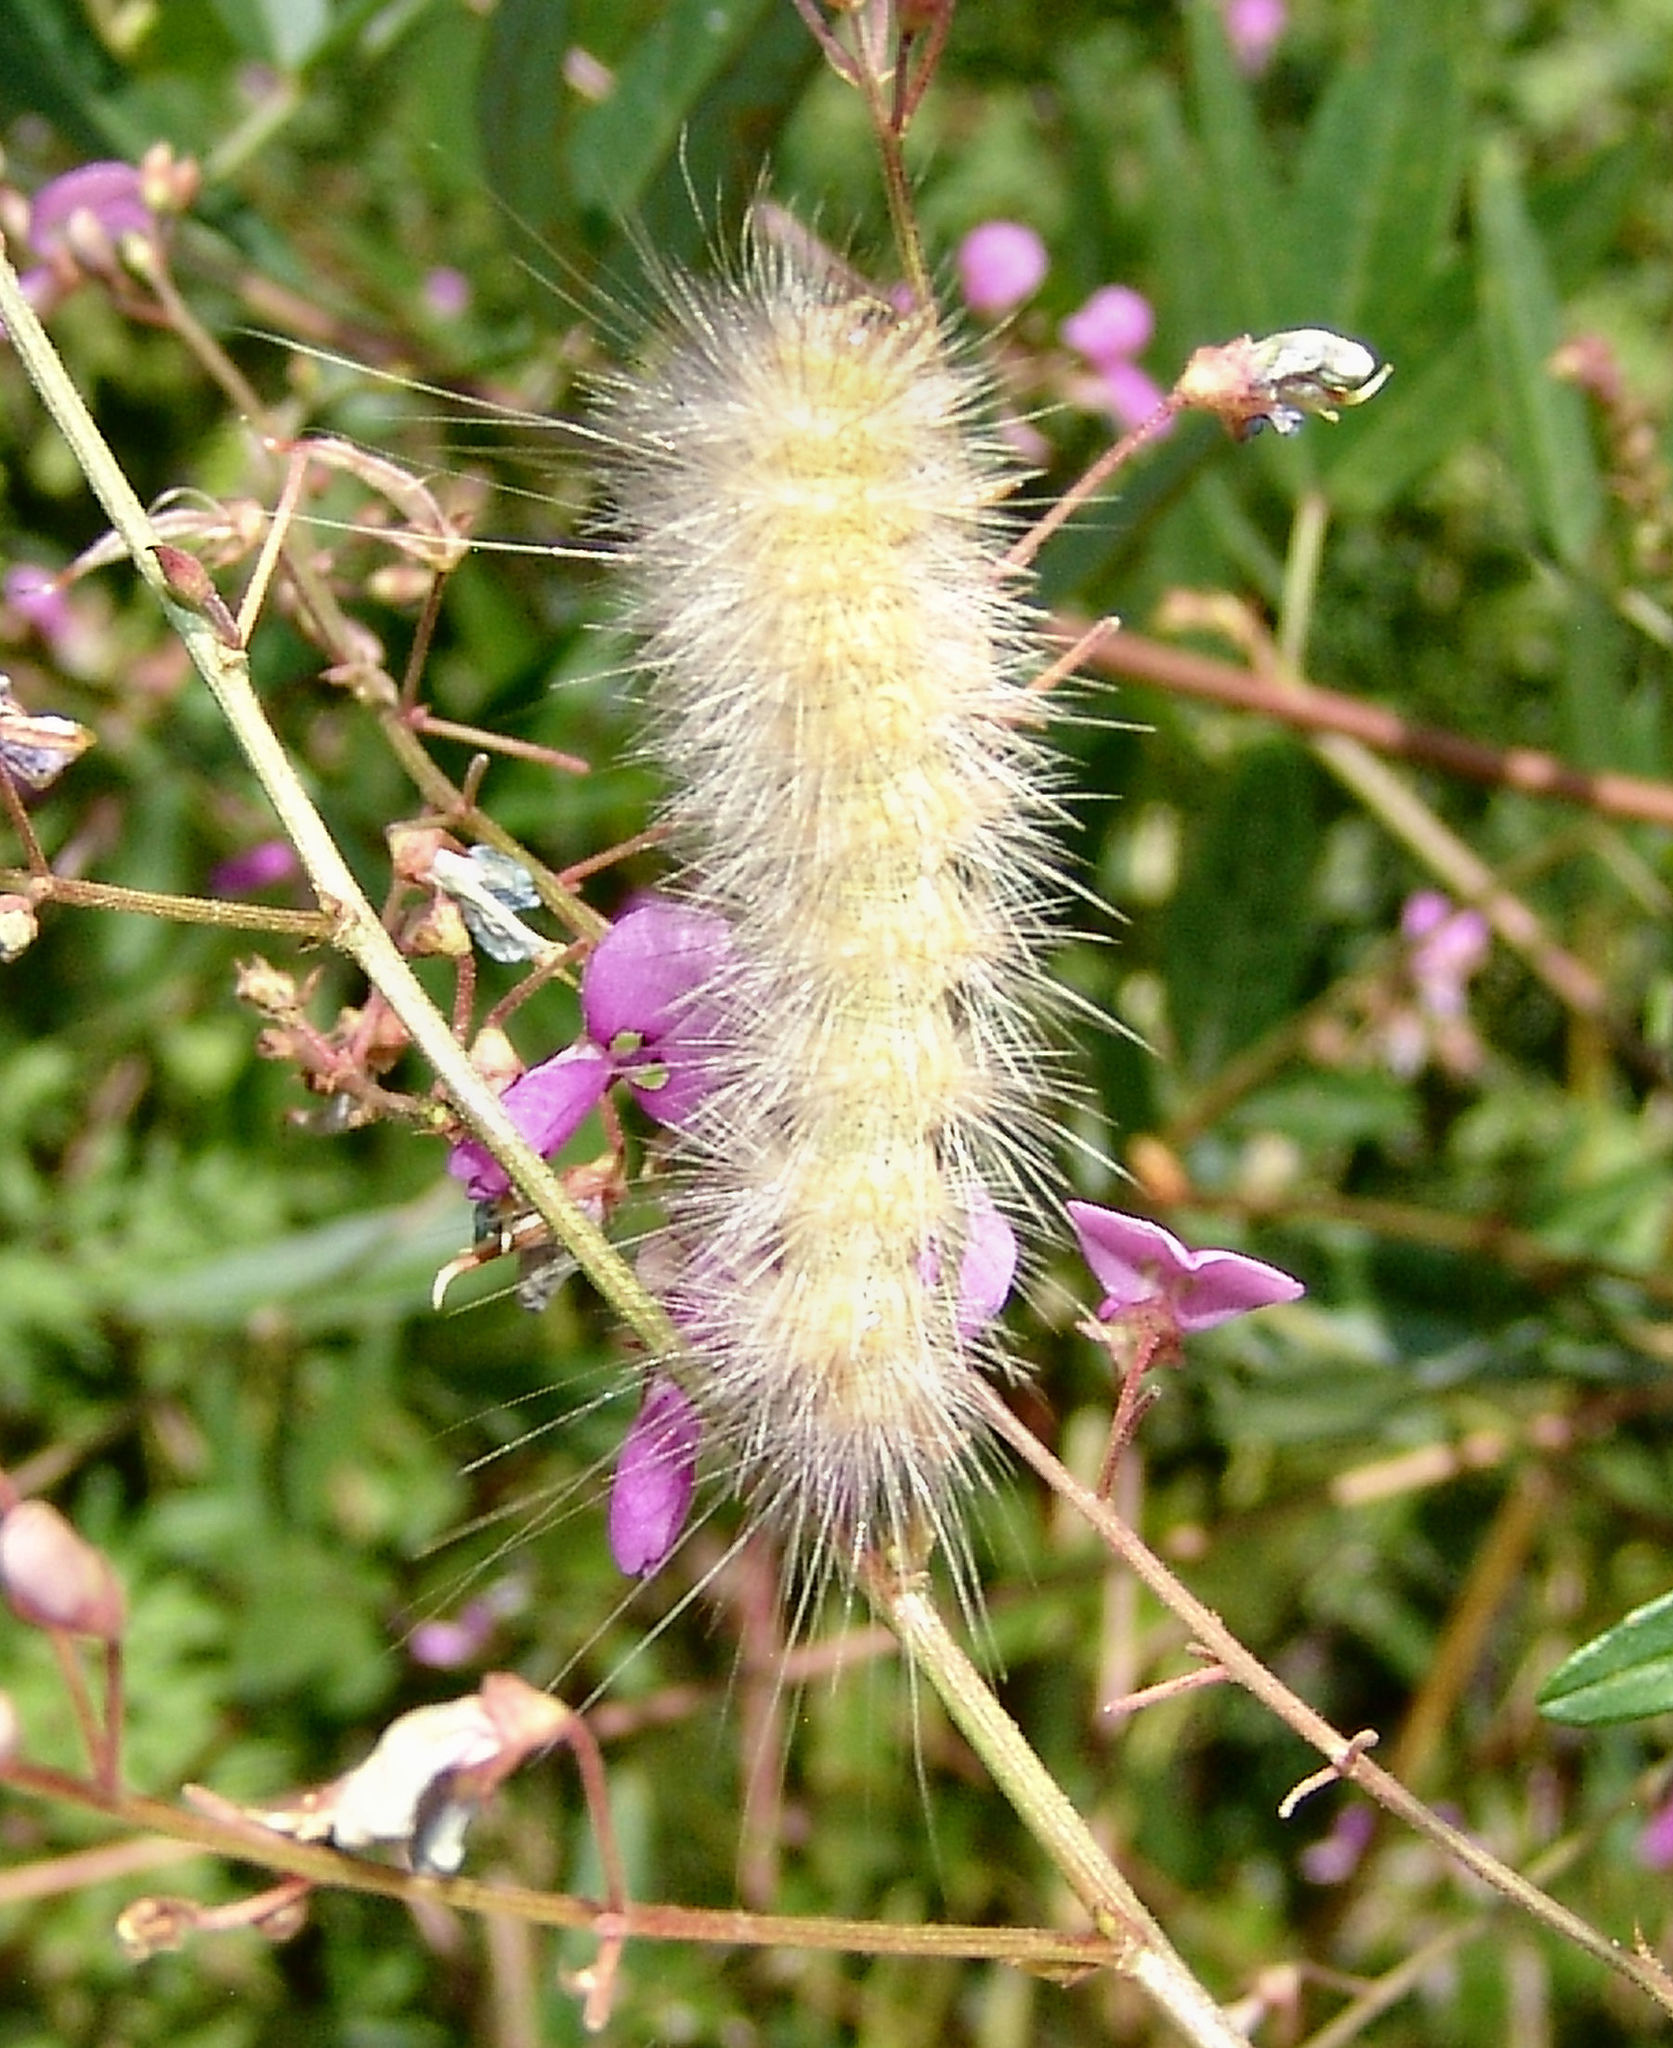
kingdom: Animalia
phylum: Arthropoda
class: Insecta
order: Lepidoptera
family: Erebidae
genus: Estigmene
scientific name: Estigmene acrea
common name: Salt marsh moth
